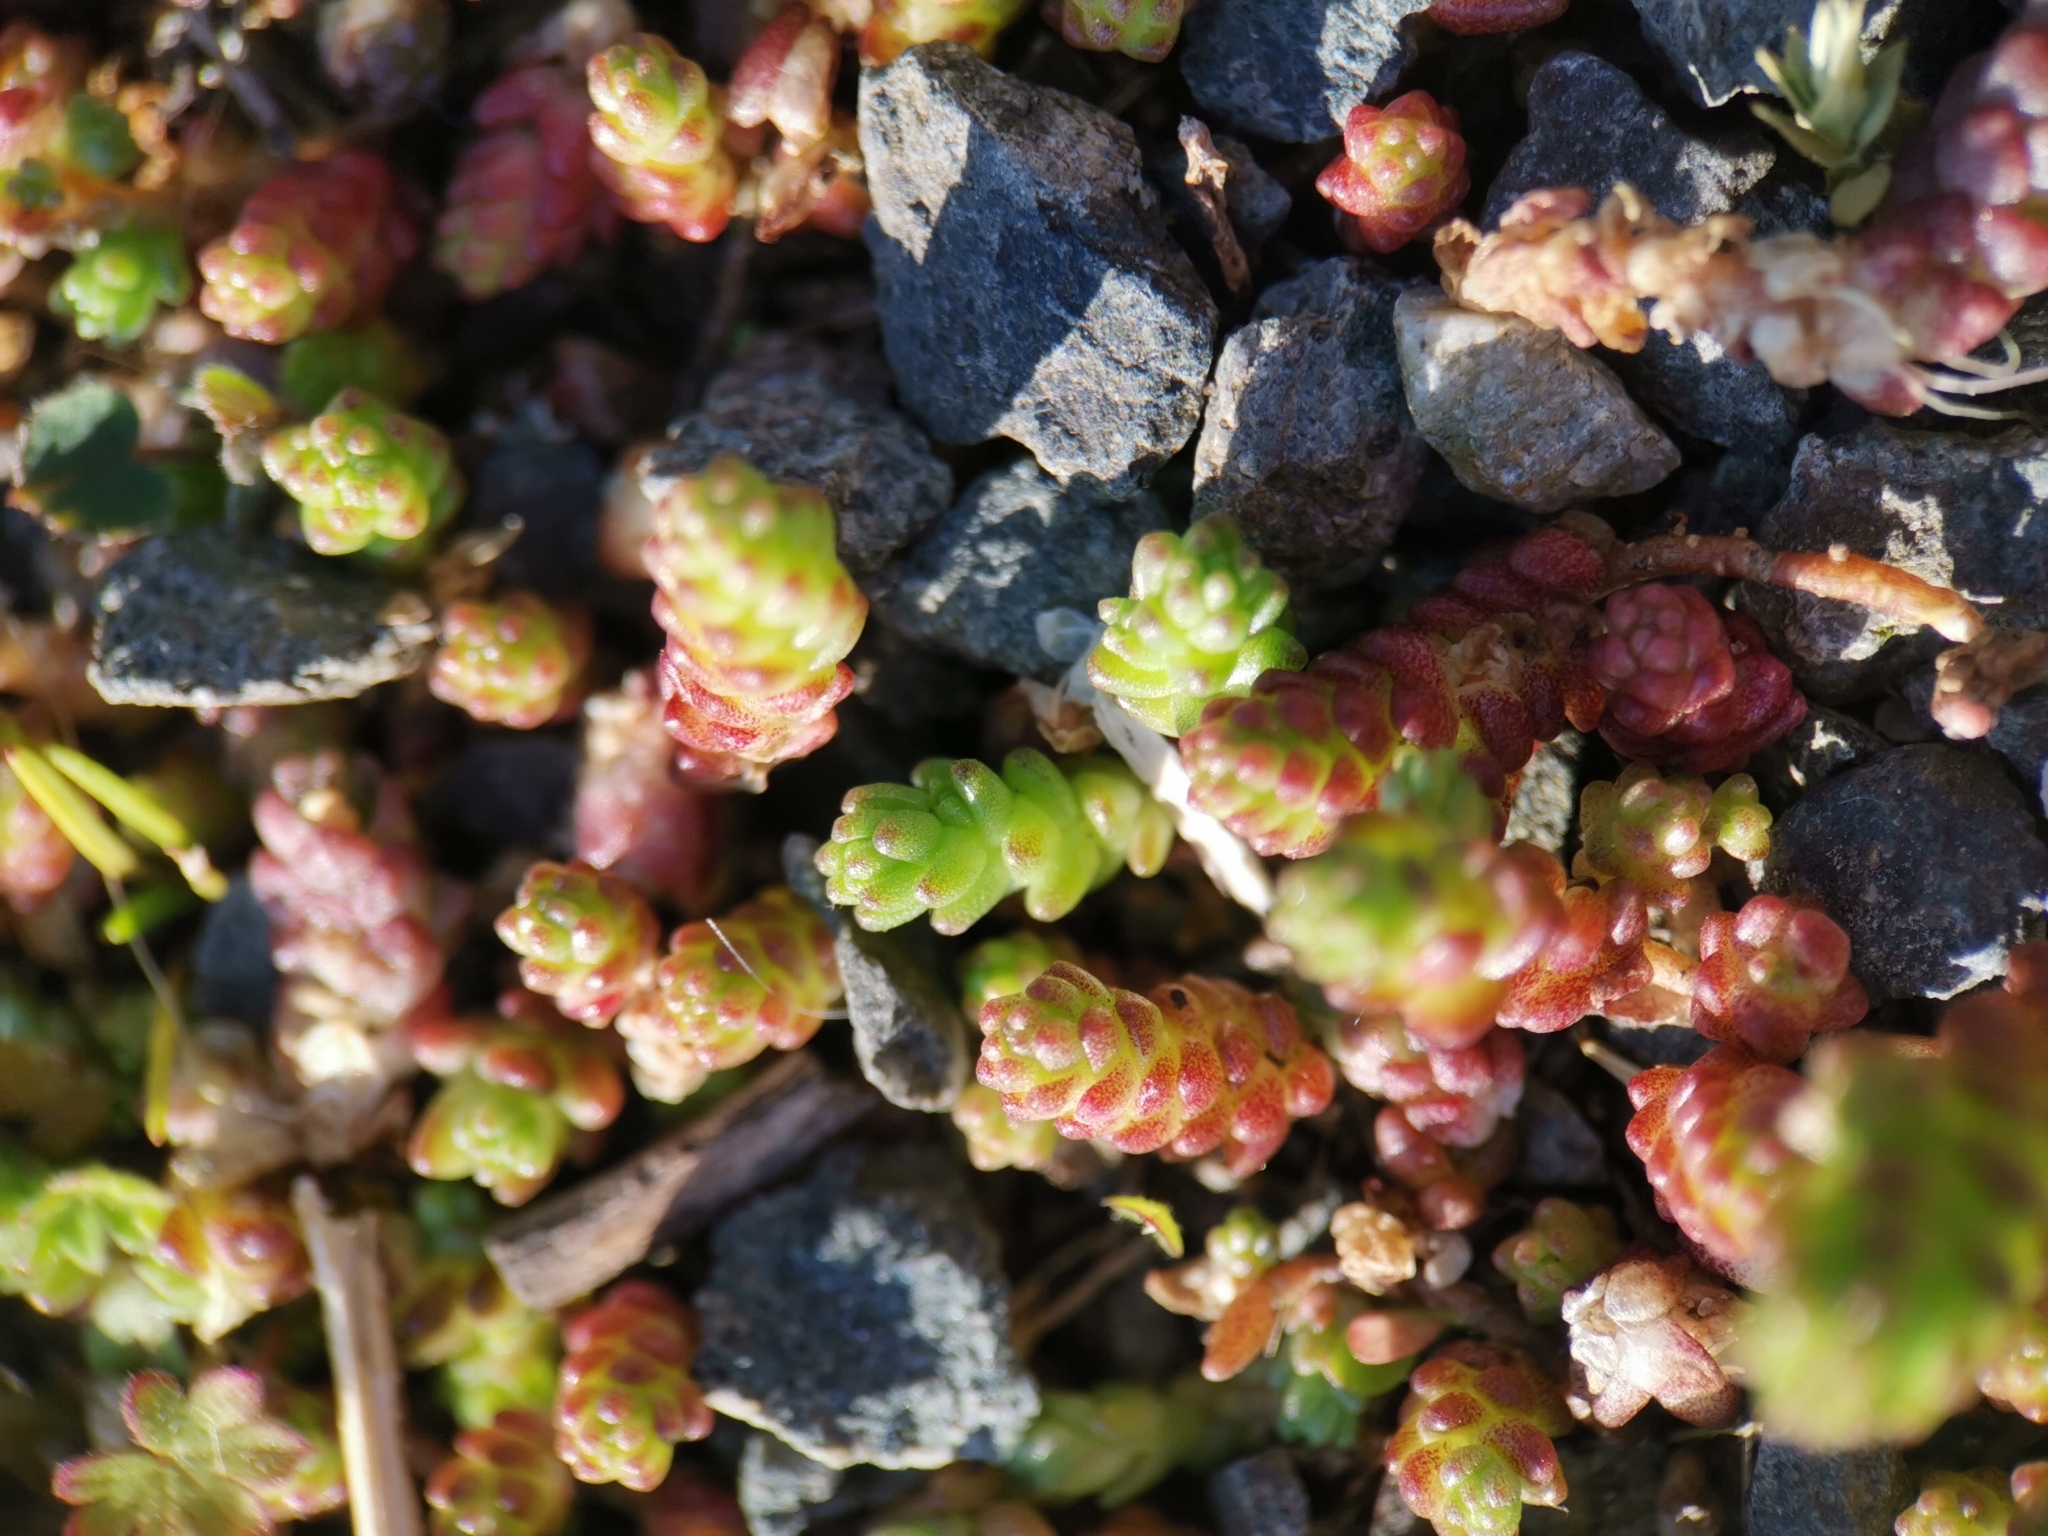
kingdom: Plantae
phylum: Tracheophyta
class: Magnoliopsida
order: Saxifragales
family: Crassulaceae
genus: Sedum
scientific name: Sedum acre
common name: Biting stonecrop
